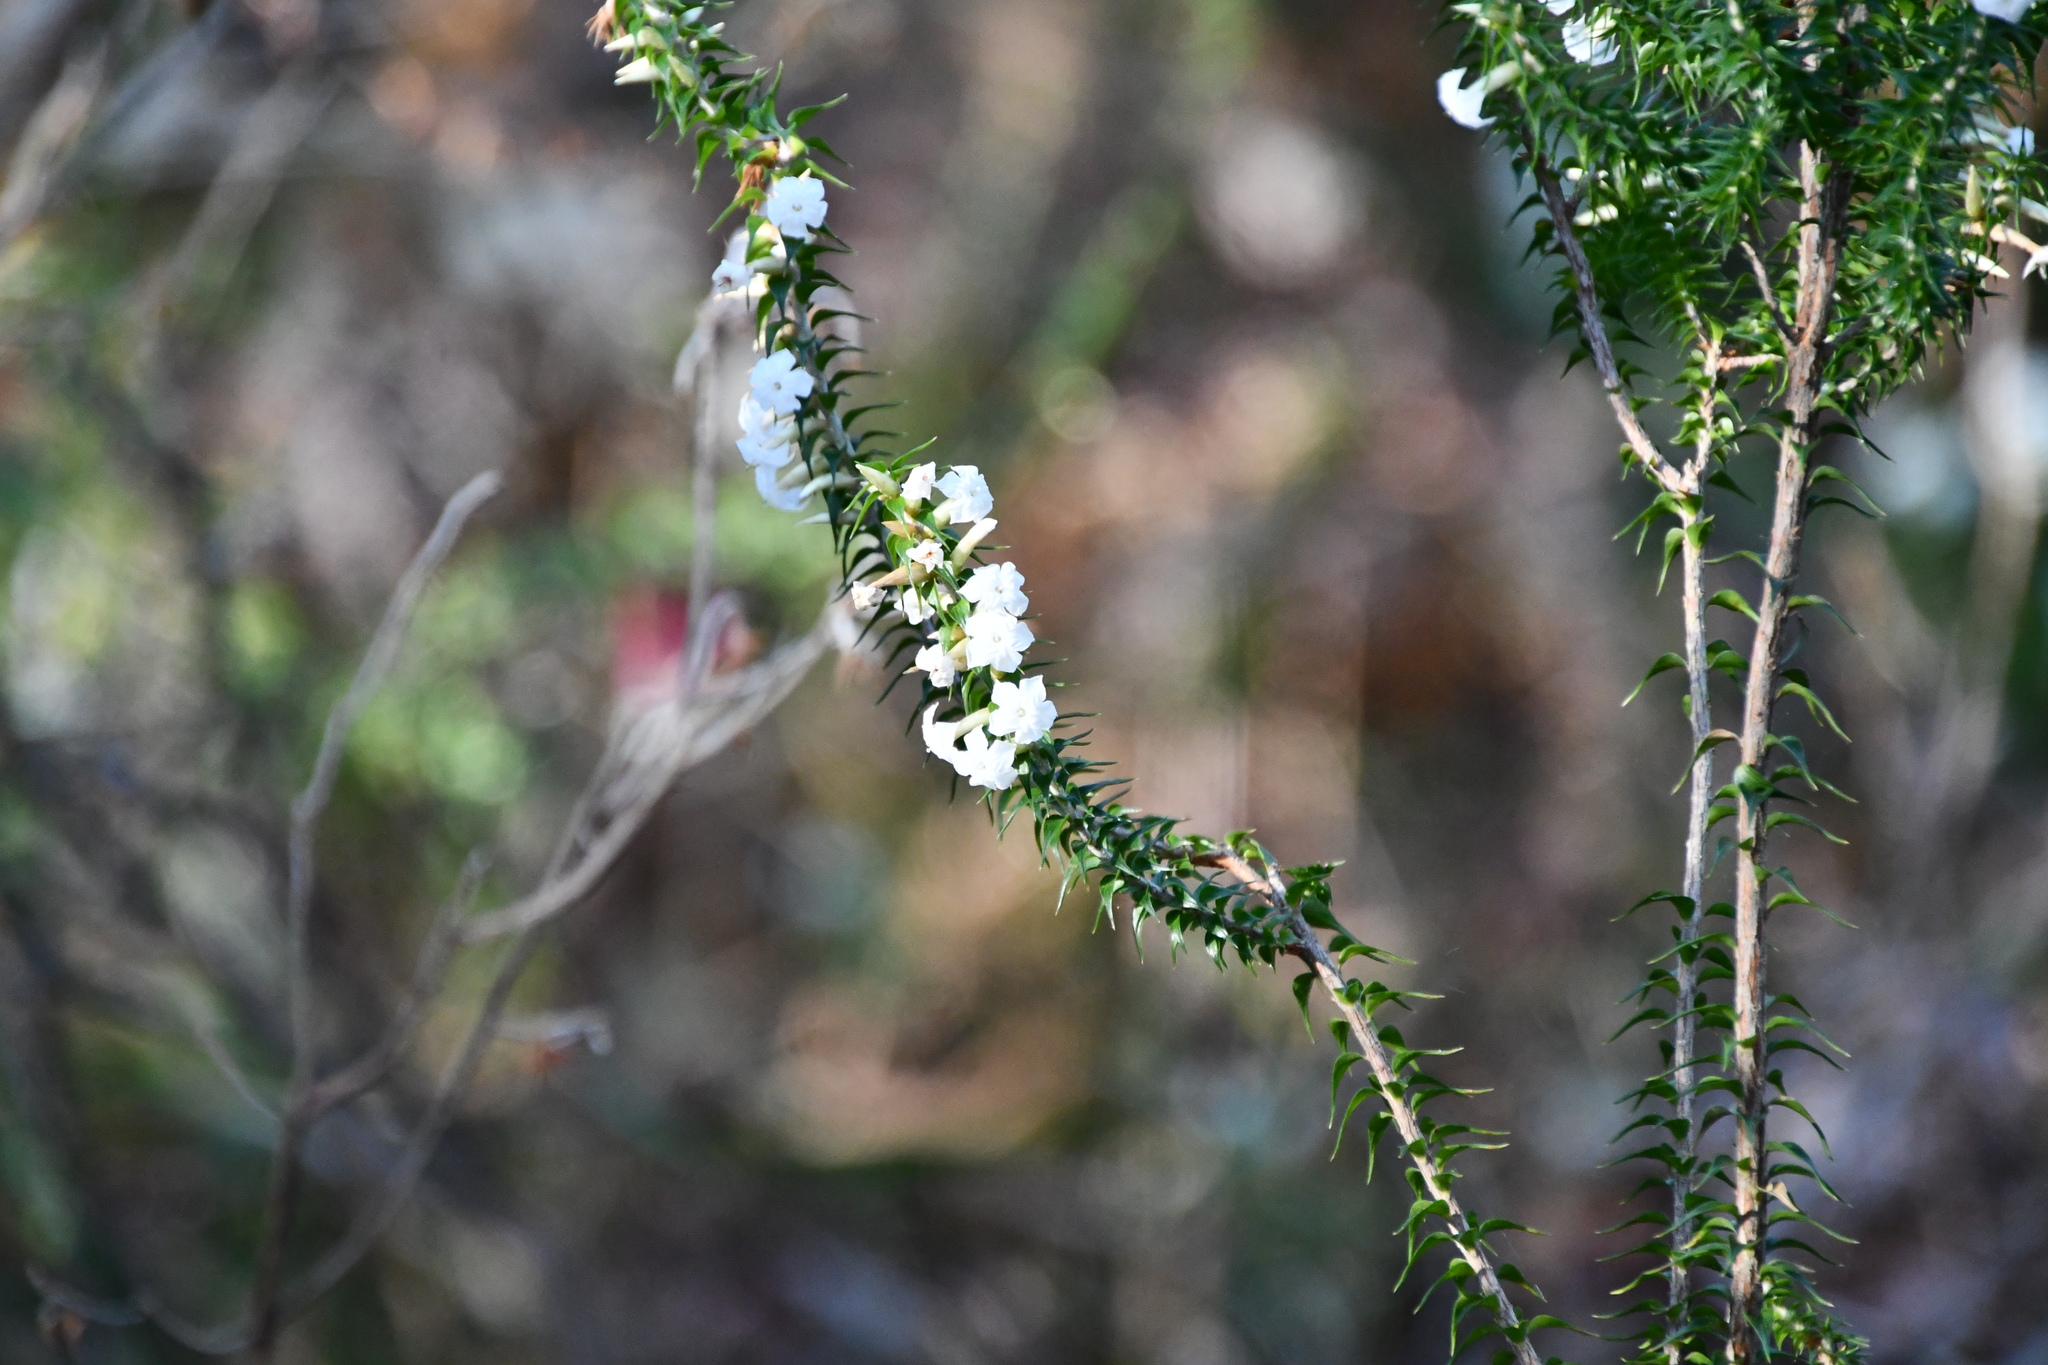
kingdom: Plantae
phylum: Tracheophyta
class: Magnoliopsida
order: Ericales
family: Ericaceae
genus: Woollsia
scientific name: Woollsia pungens
